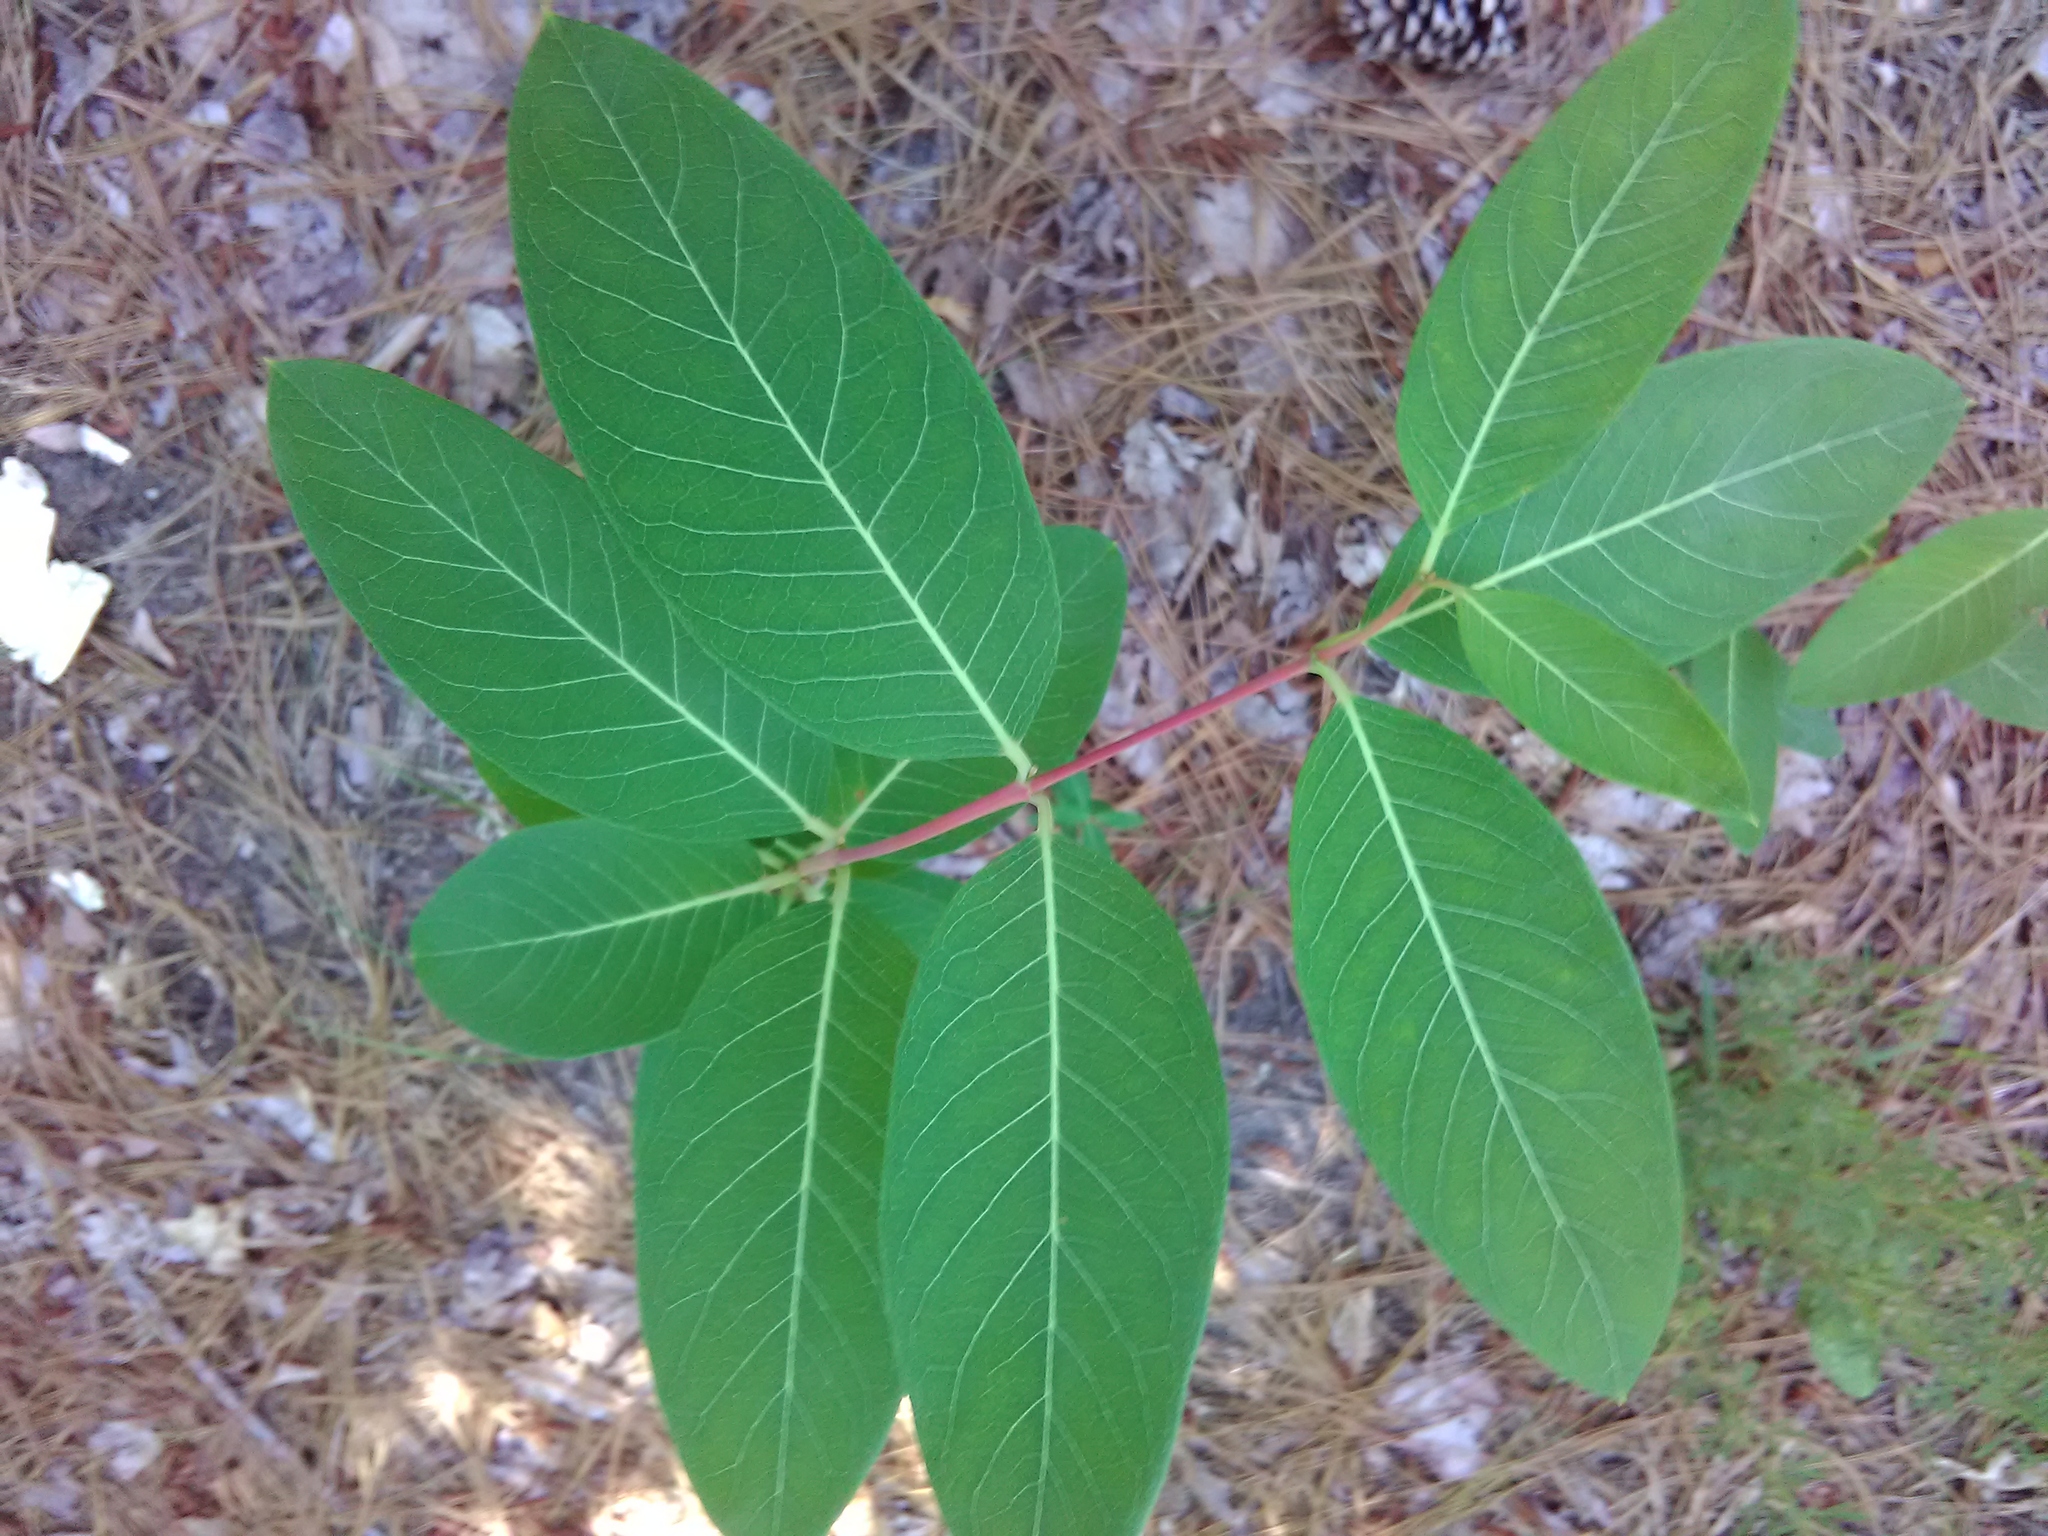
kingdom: Plantae
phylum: Tracheophyta
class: Magnoliopsida
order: Gentianales
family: Apocynaceae
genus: Apocynum
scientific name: Apocynum cannabinum
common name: Hemp dogbane
